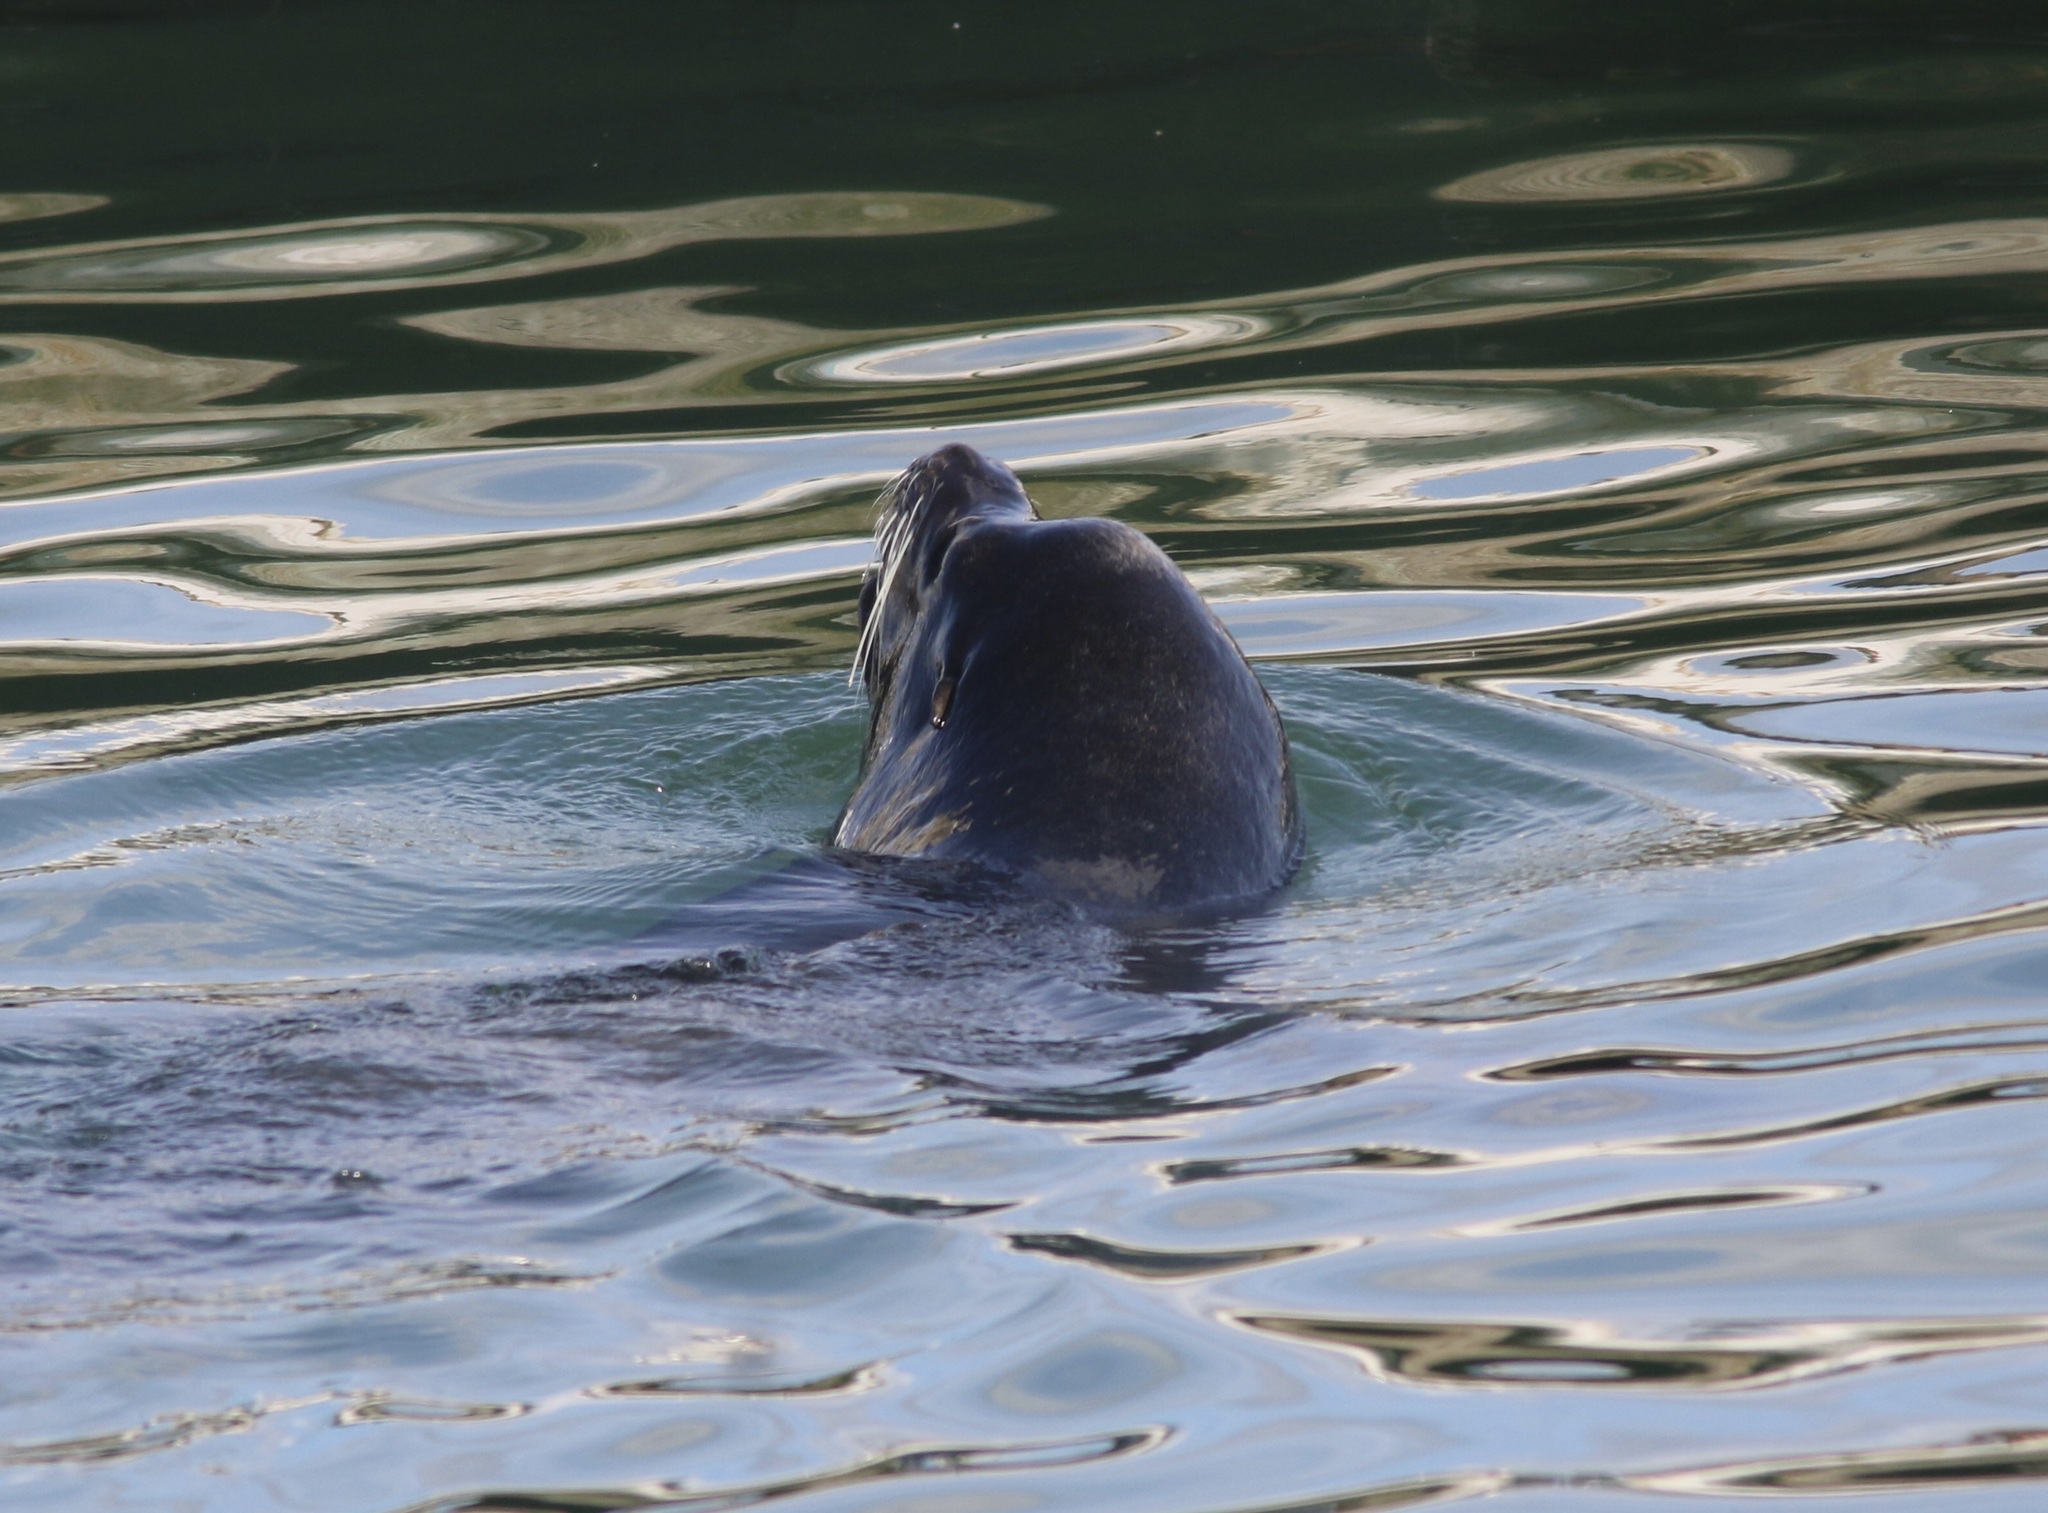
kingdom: Animalia
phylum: Chordata
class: Mammalia
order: Carnivora
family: Otariidae
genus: Zalophus
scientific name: Zalophus californianus
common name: California sea lion
